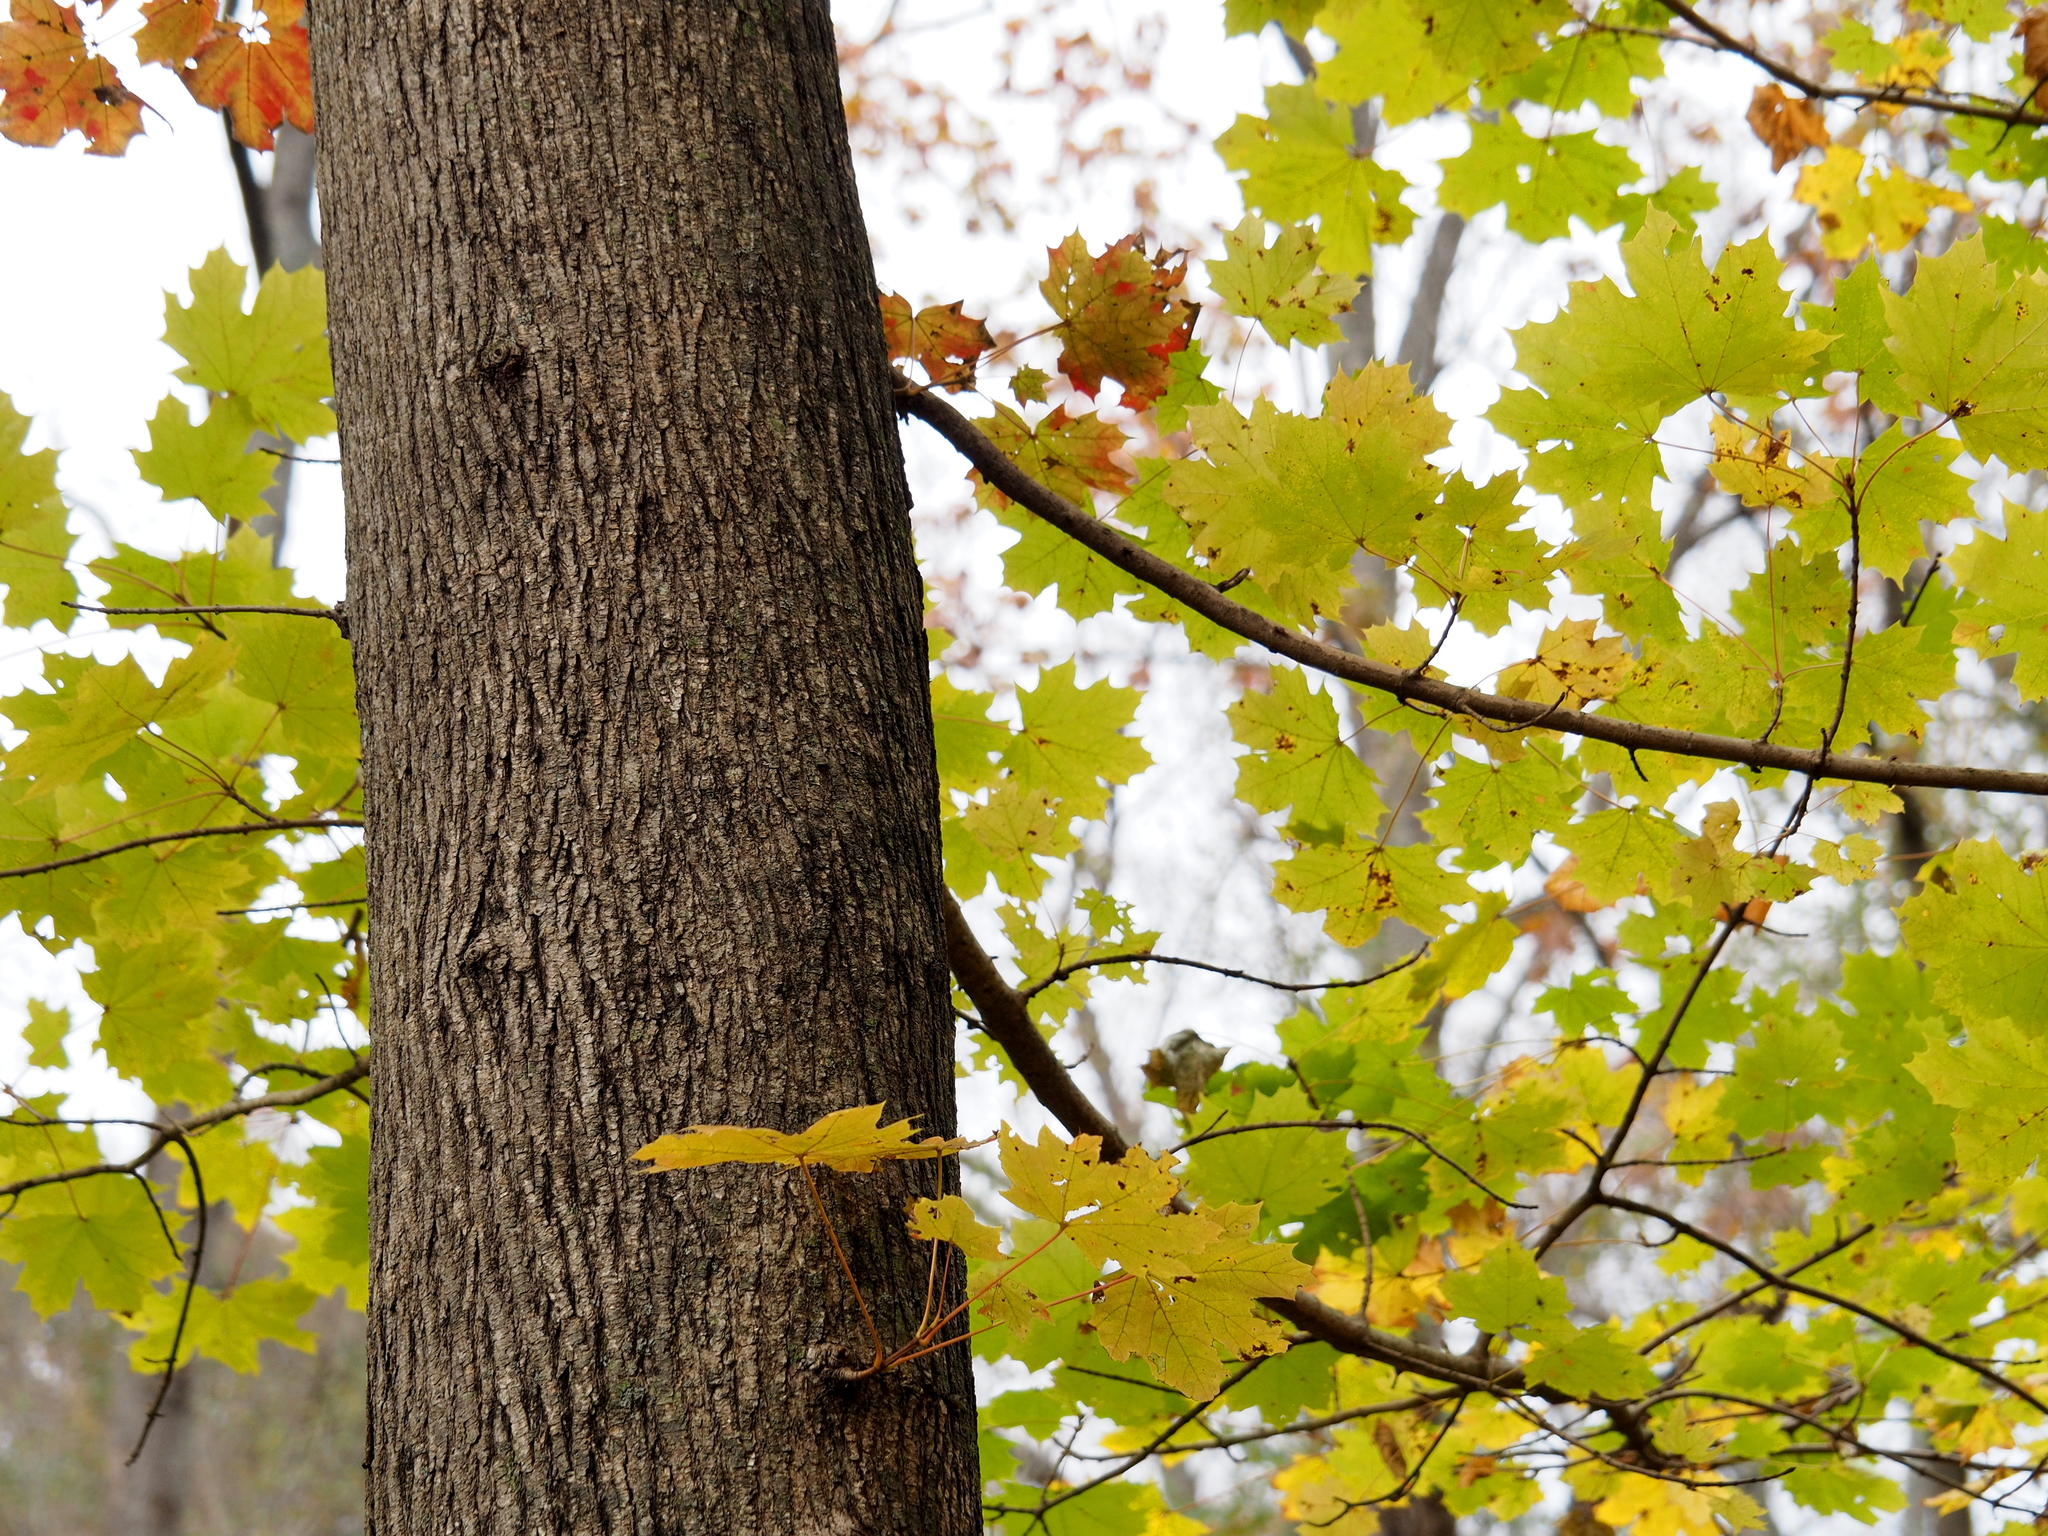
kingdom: Plantae
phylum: Tracheophyta
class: Magnoliopsida
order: Sapindales
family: Sapindaceae
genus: Acer
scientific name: Acer platanoides
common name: Norway maple
